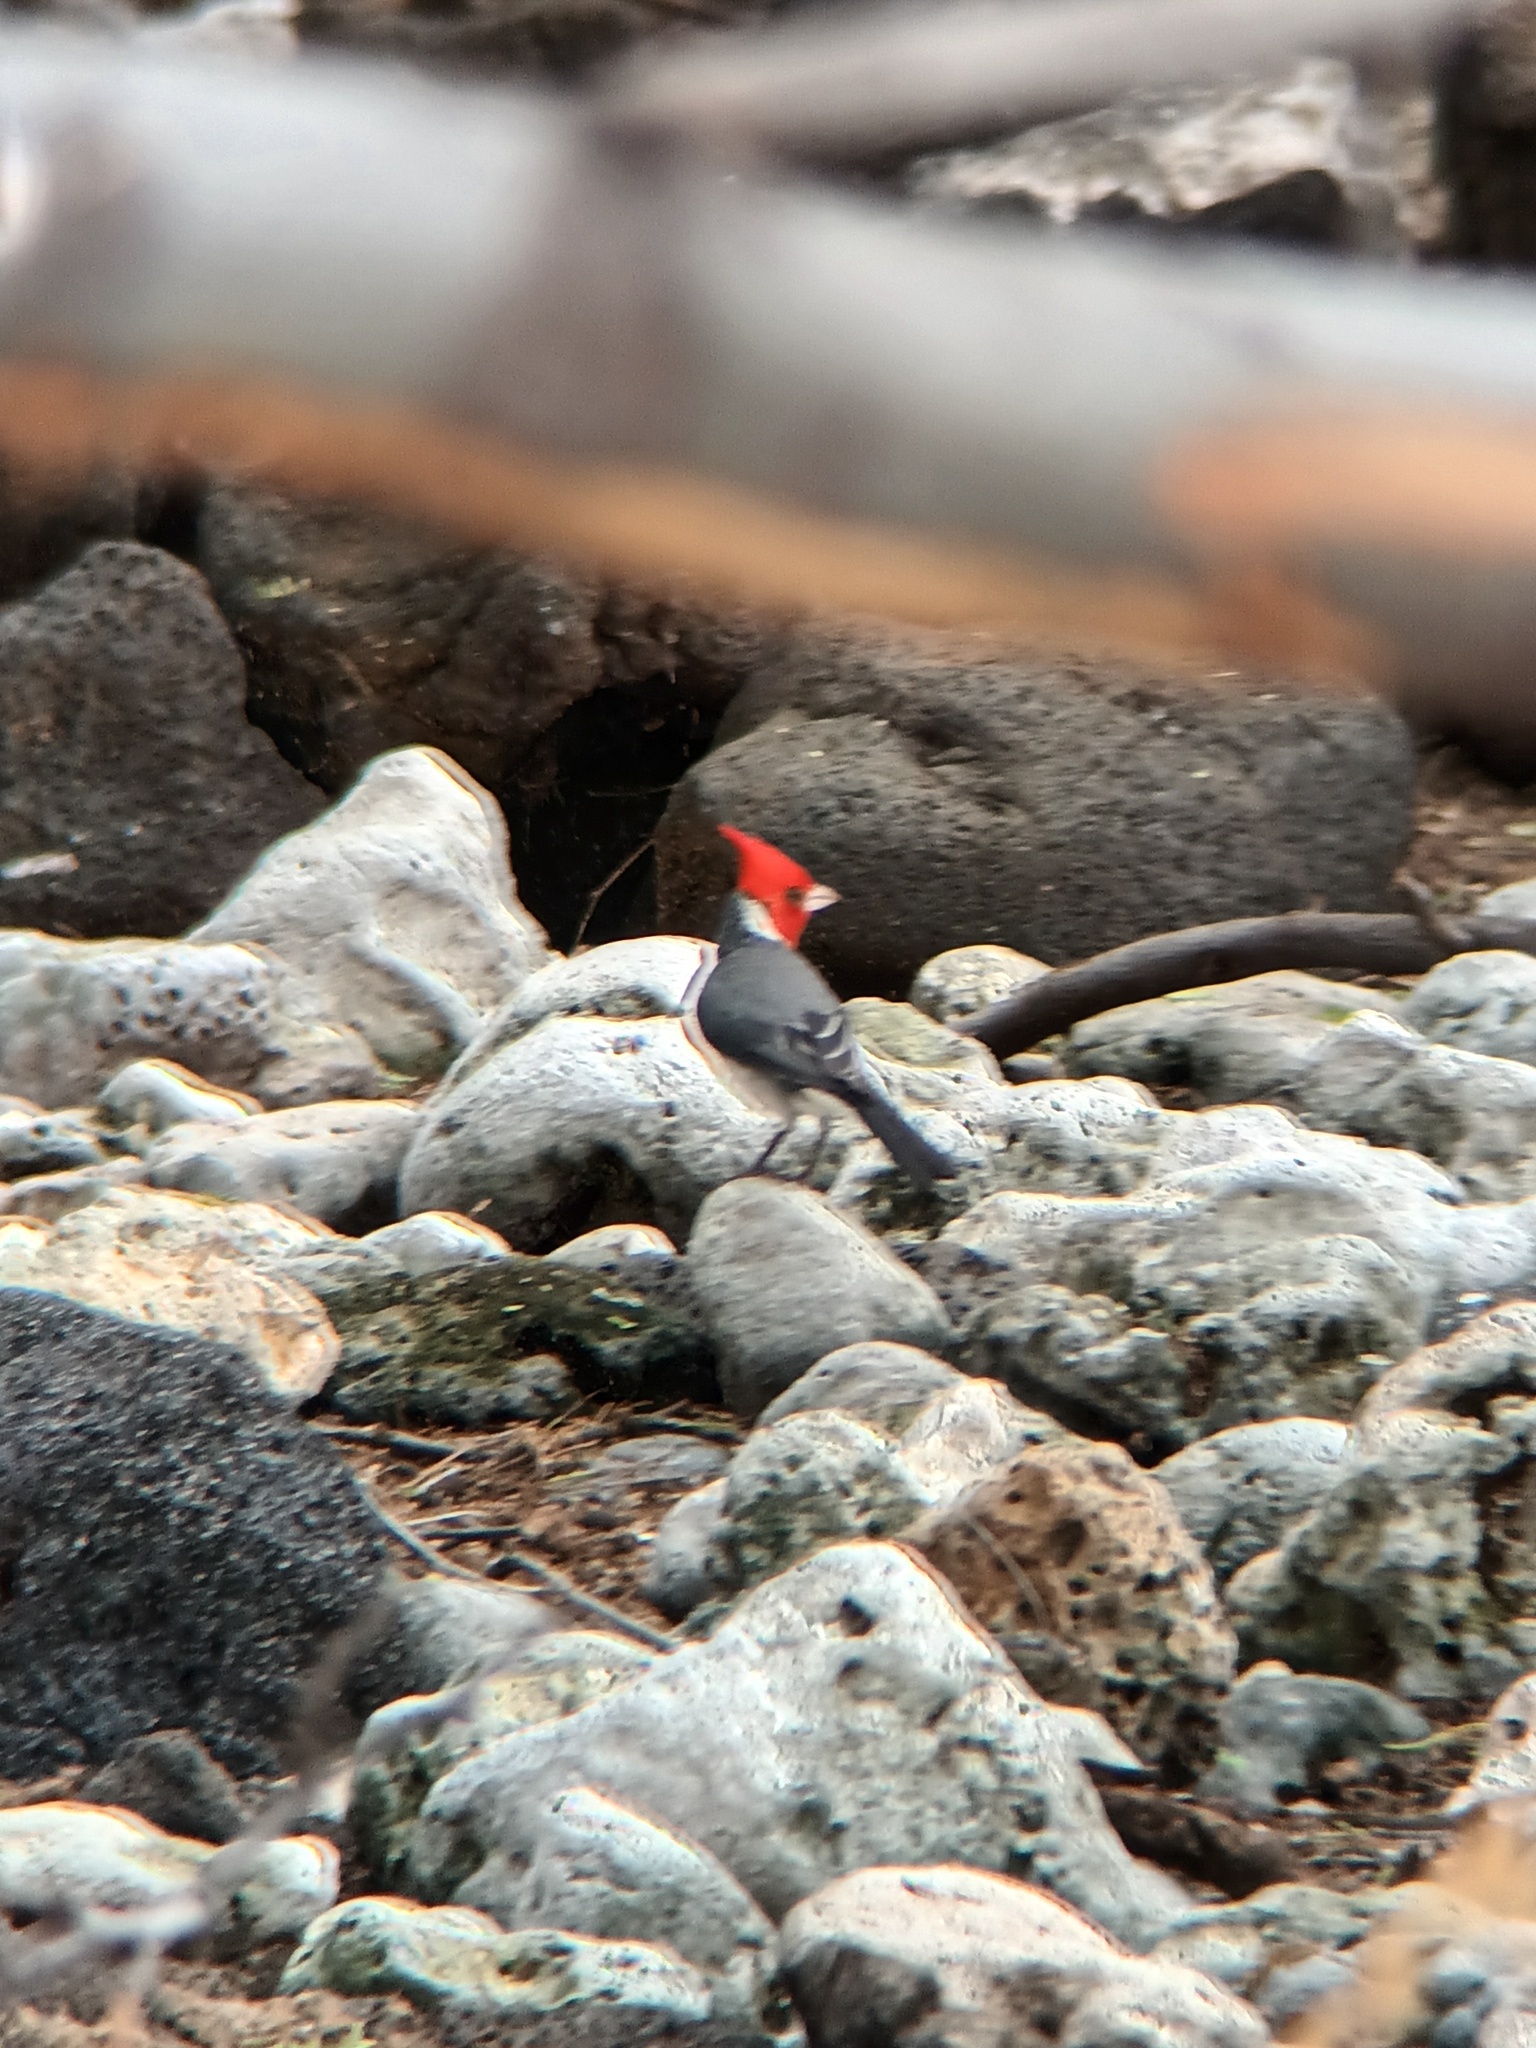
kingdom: Animalia
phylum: Chordata
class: Aves
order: Passeriformes
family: Thraupidae
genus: Paroaria
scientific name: Paroaria coronata
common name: Red-crested cardinal
